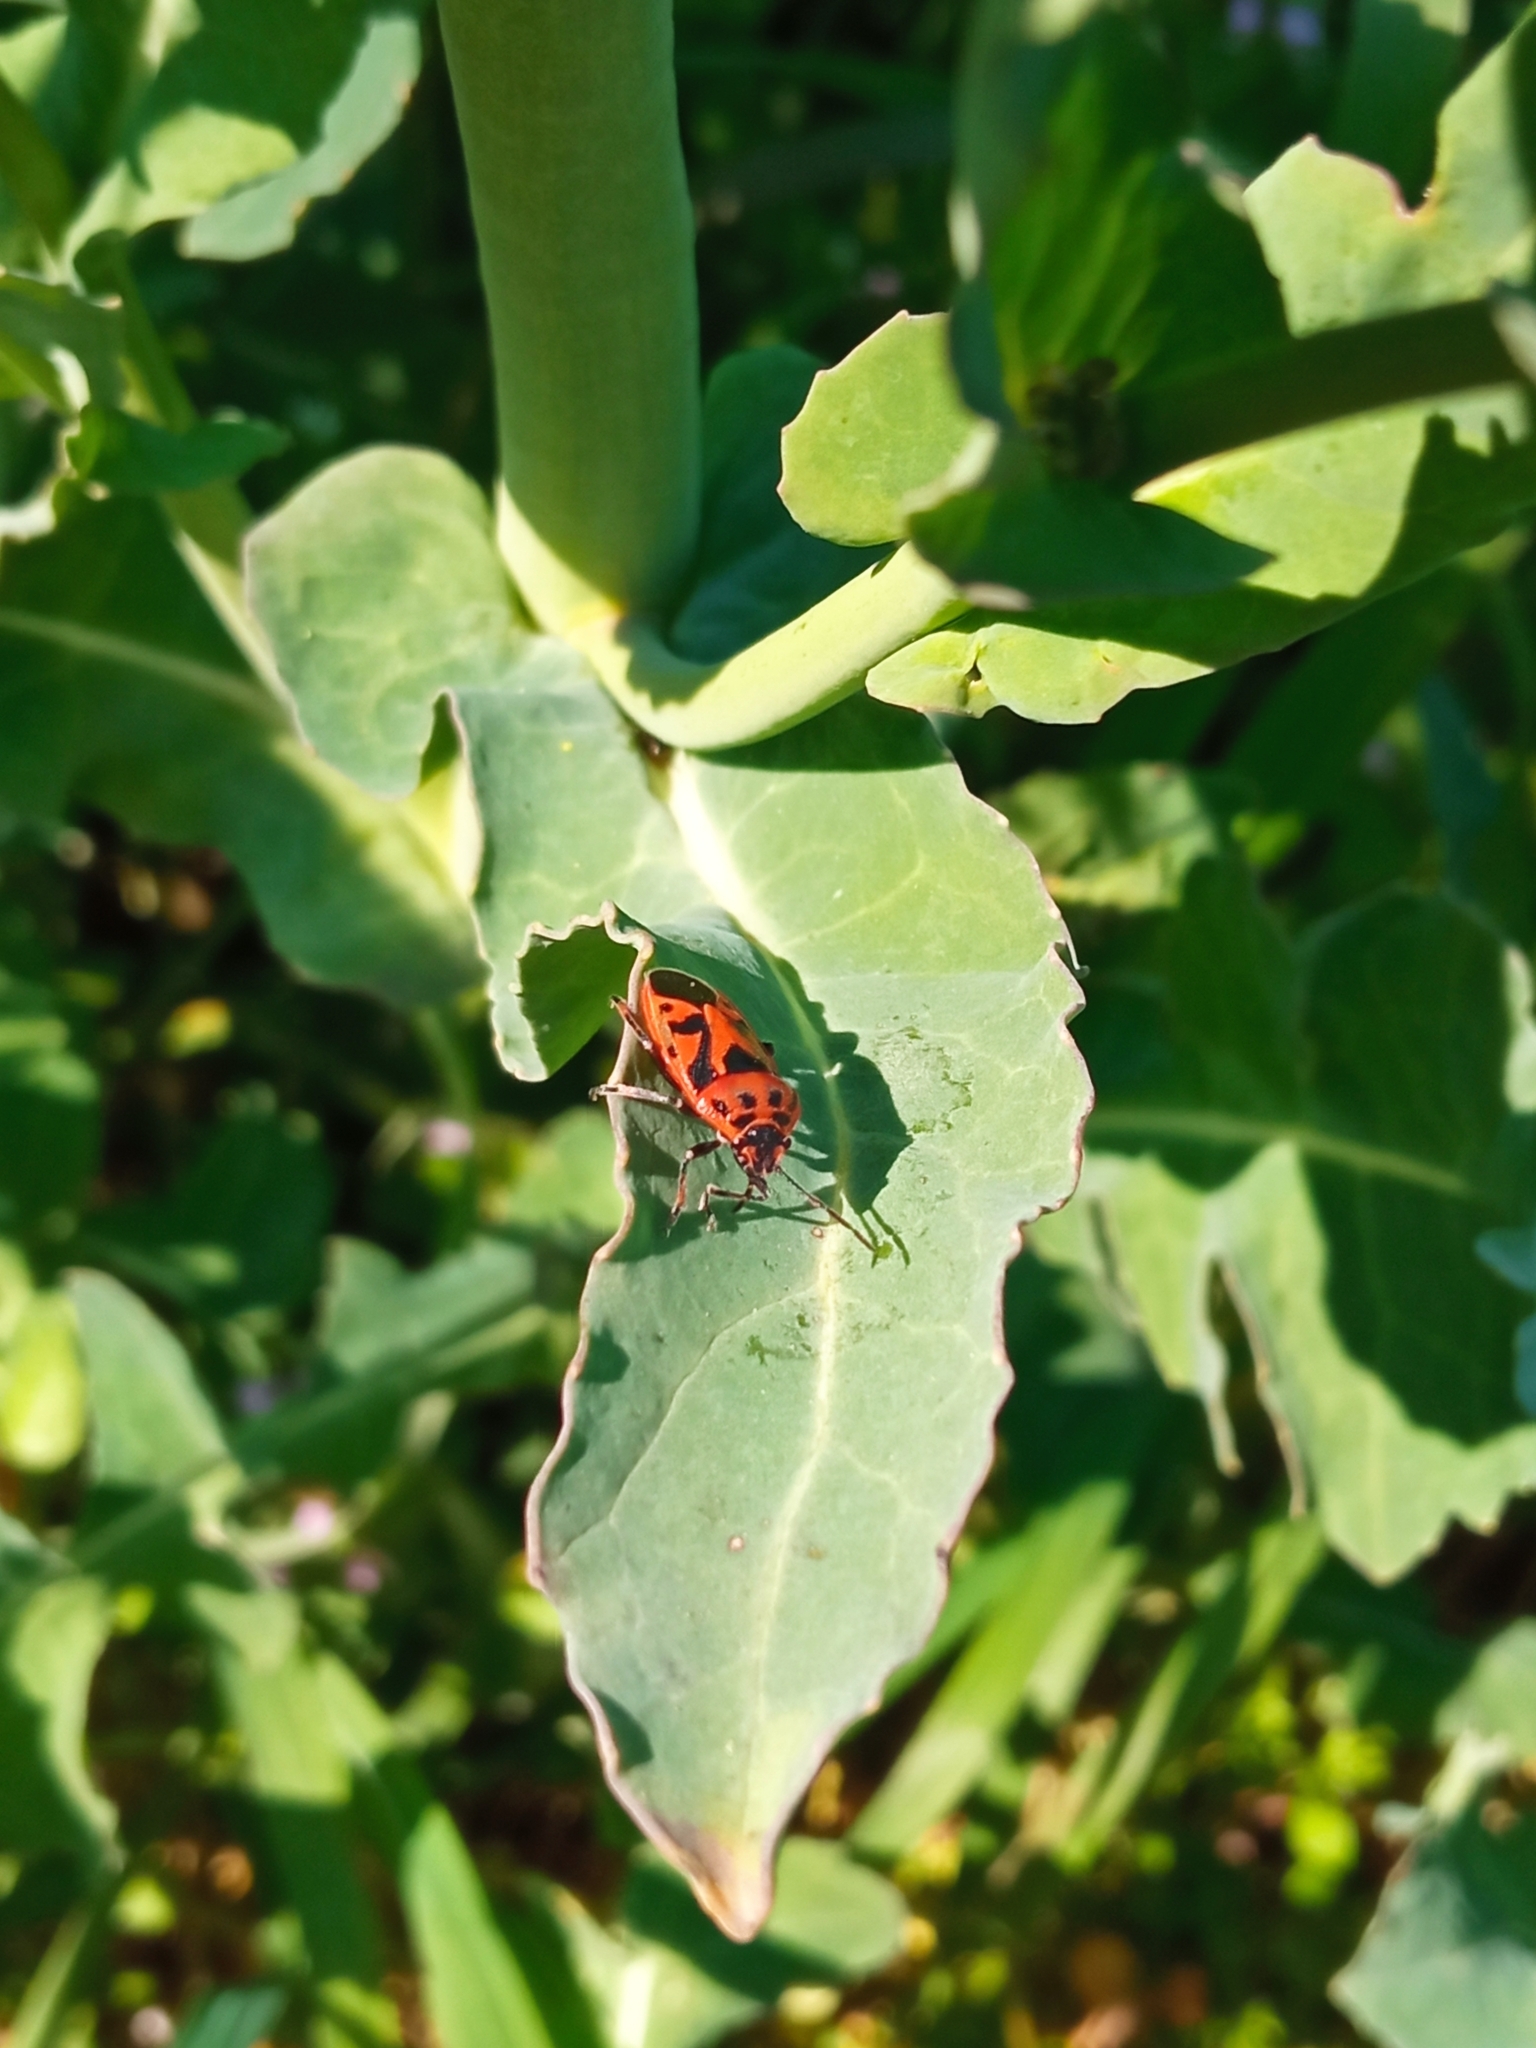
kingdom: Animalia
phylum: Arthropoda
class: Insecta
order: Hemiptera
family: Pentatomidae
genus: Eurydema
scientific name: Eurydema ornata
